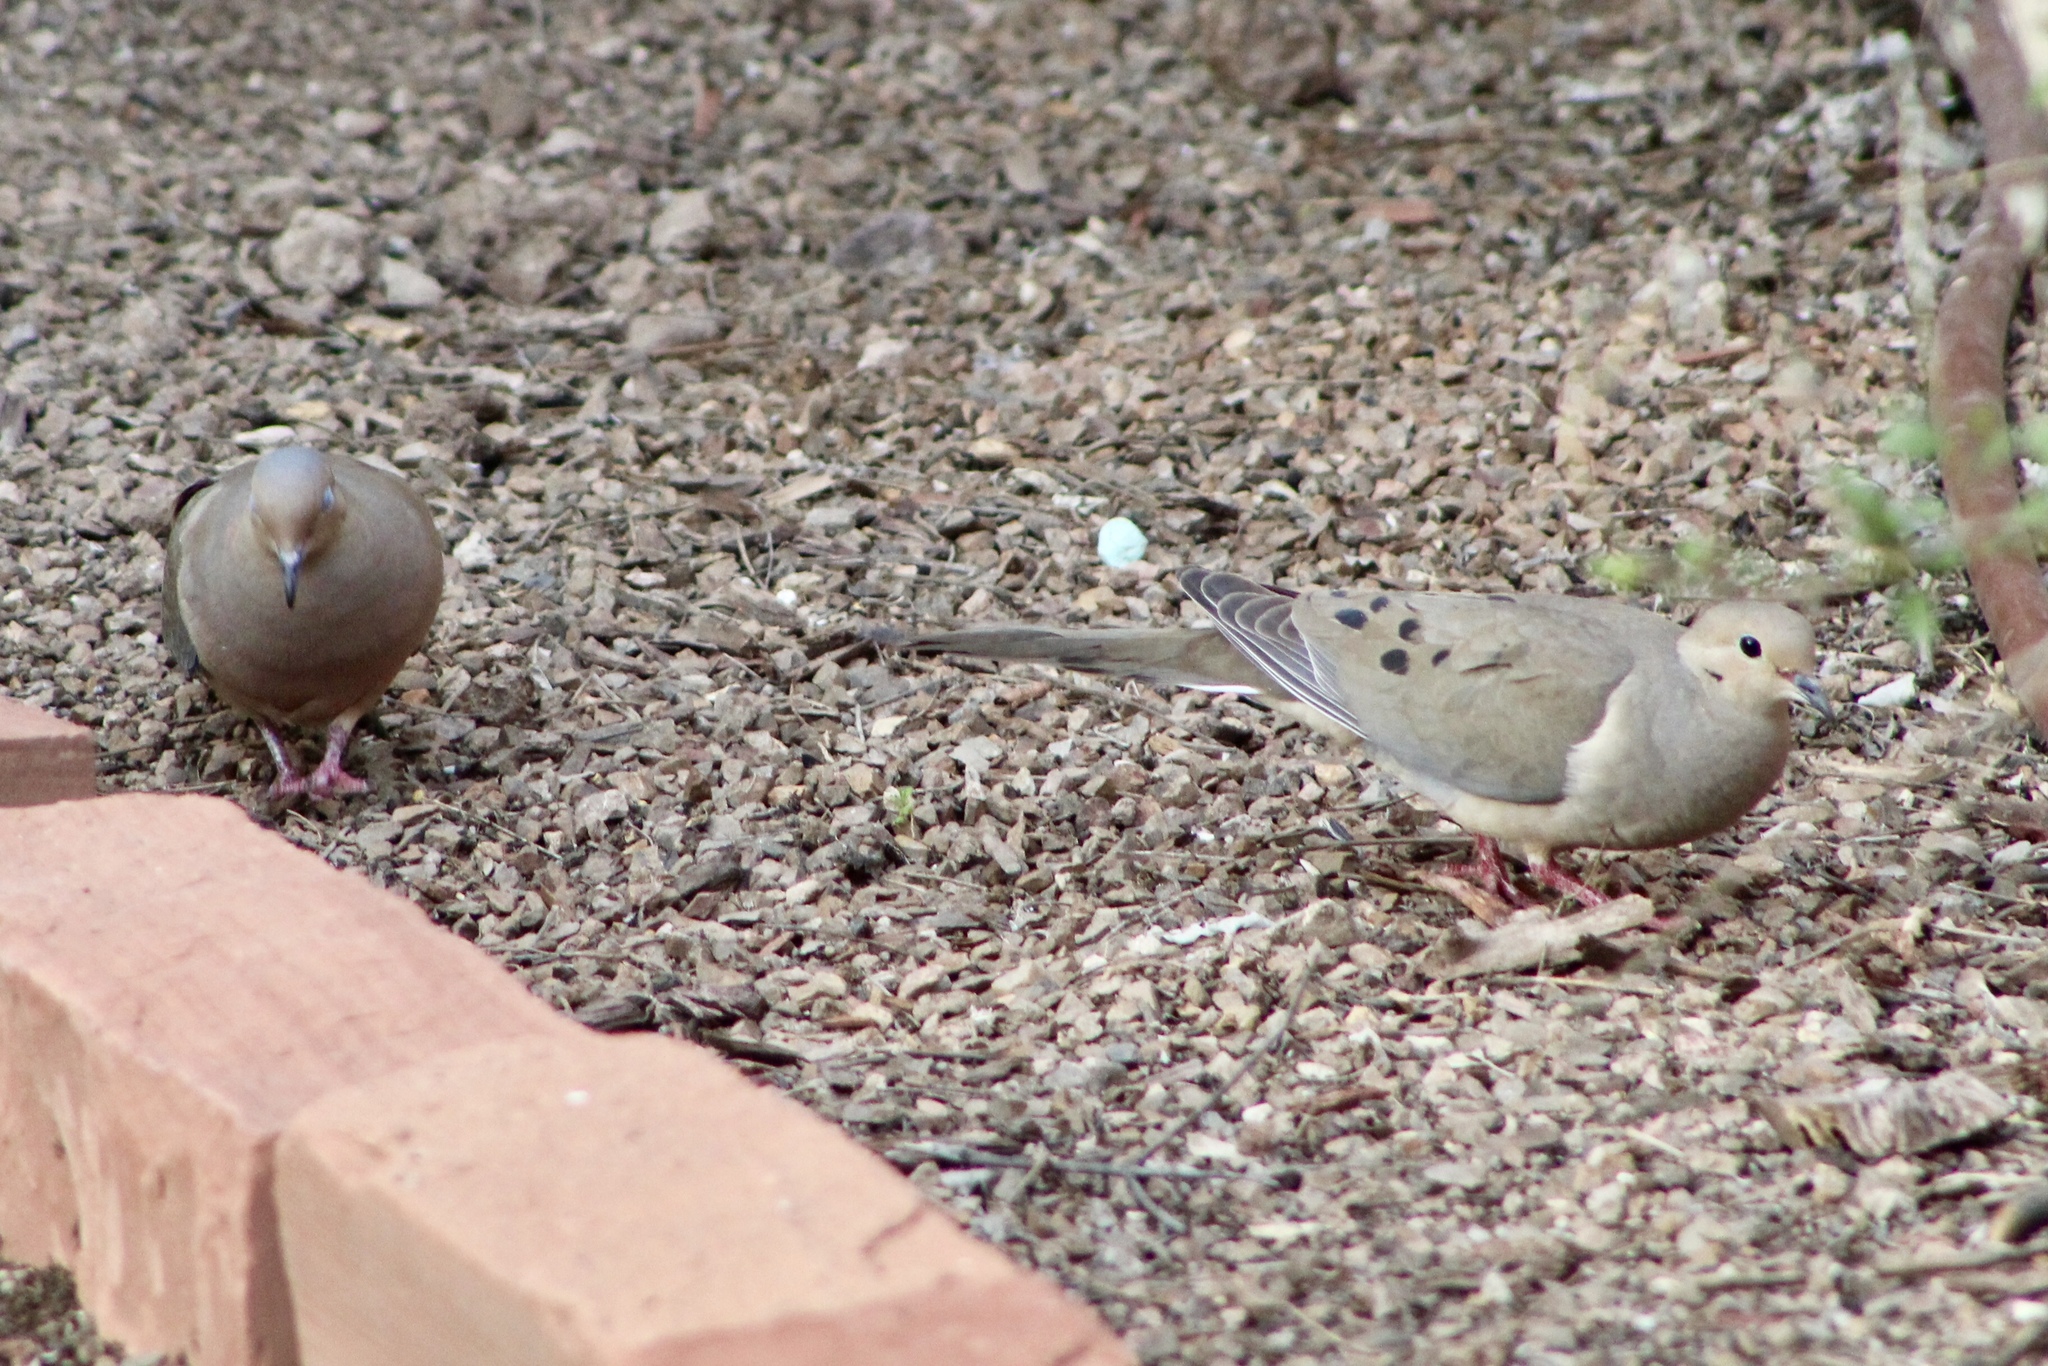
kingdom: Animalia
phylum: Chordata
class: Aves
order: Columbiformes
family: Columbidae
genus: Zenaida
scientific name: Zenaida macroura
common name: Mourning dove
